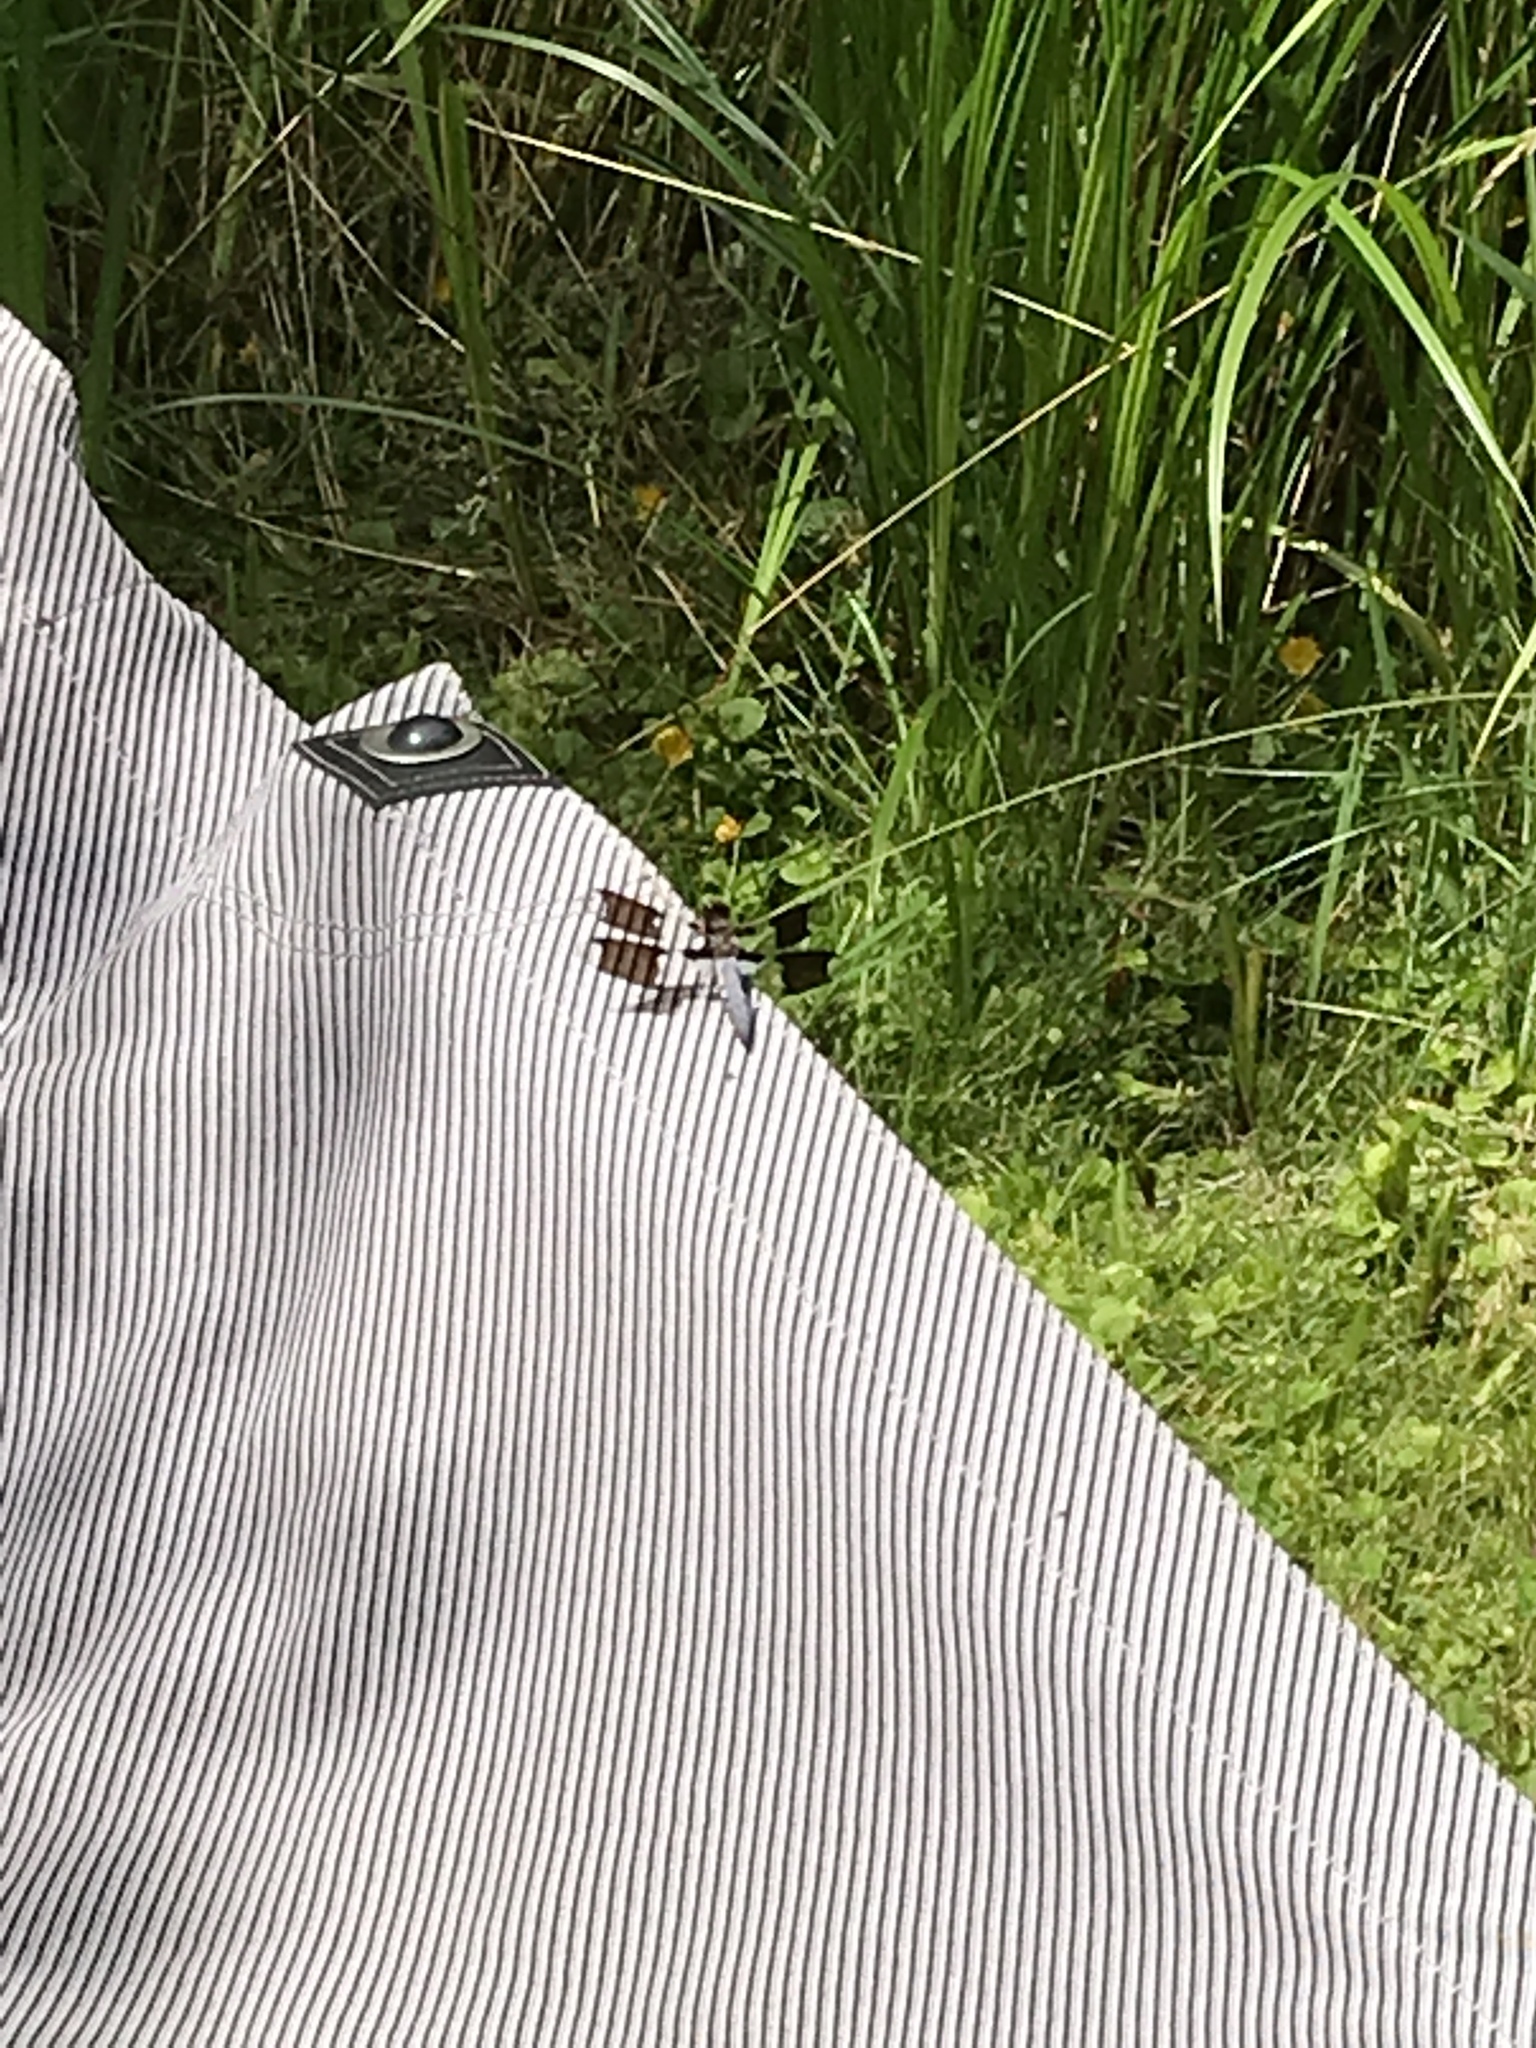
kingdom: Animalia
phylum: Arthropoda
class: Insecta
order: Odonata
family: Libellulidae
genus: Plathemis
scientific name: Plathemis lydia
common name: Common whitetail
